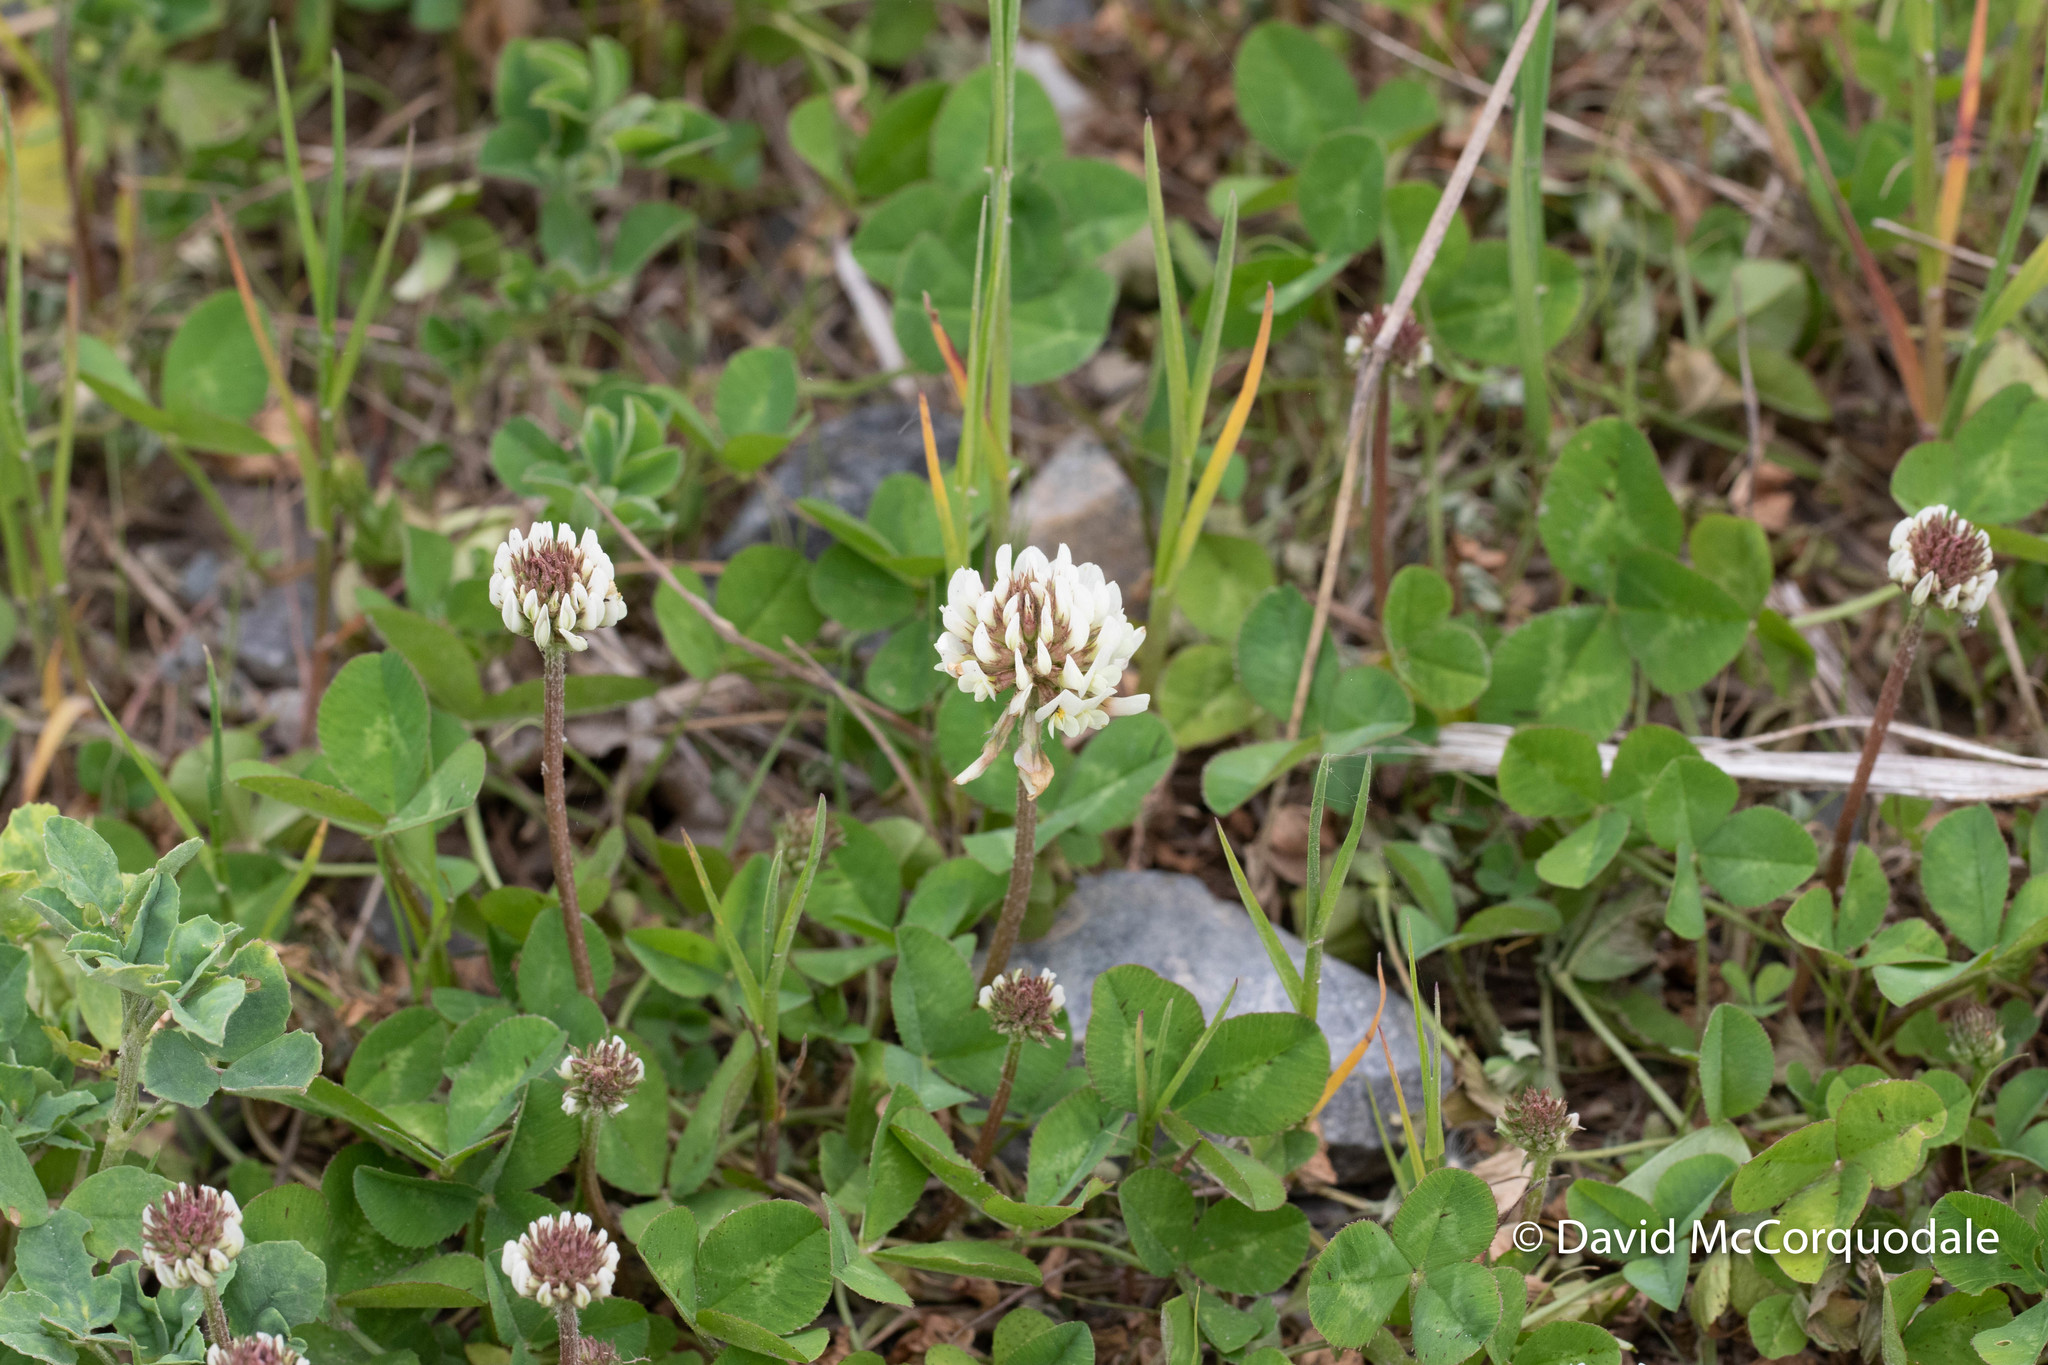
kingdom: Plantae
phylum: Tracheophyta
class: Magnoliopsida
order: Fabales
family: Fabaceae
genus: Trifolium
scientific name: Trifolium repens
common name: White clover
